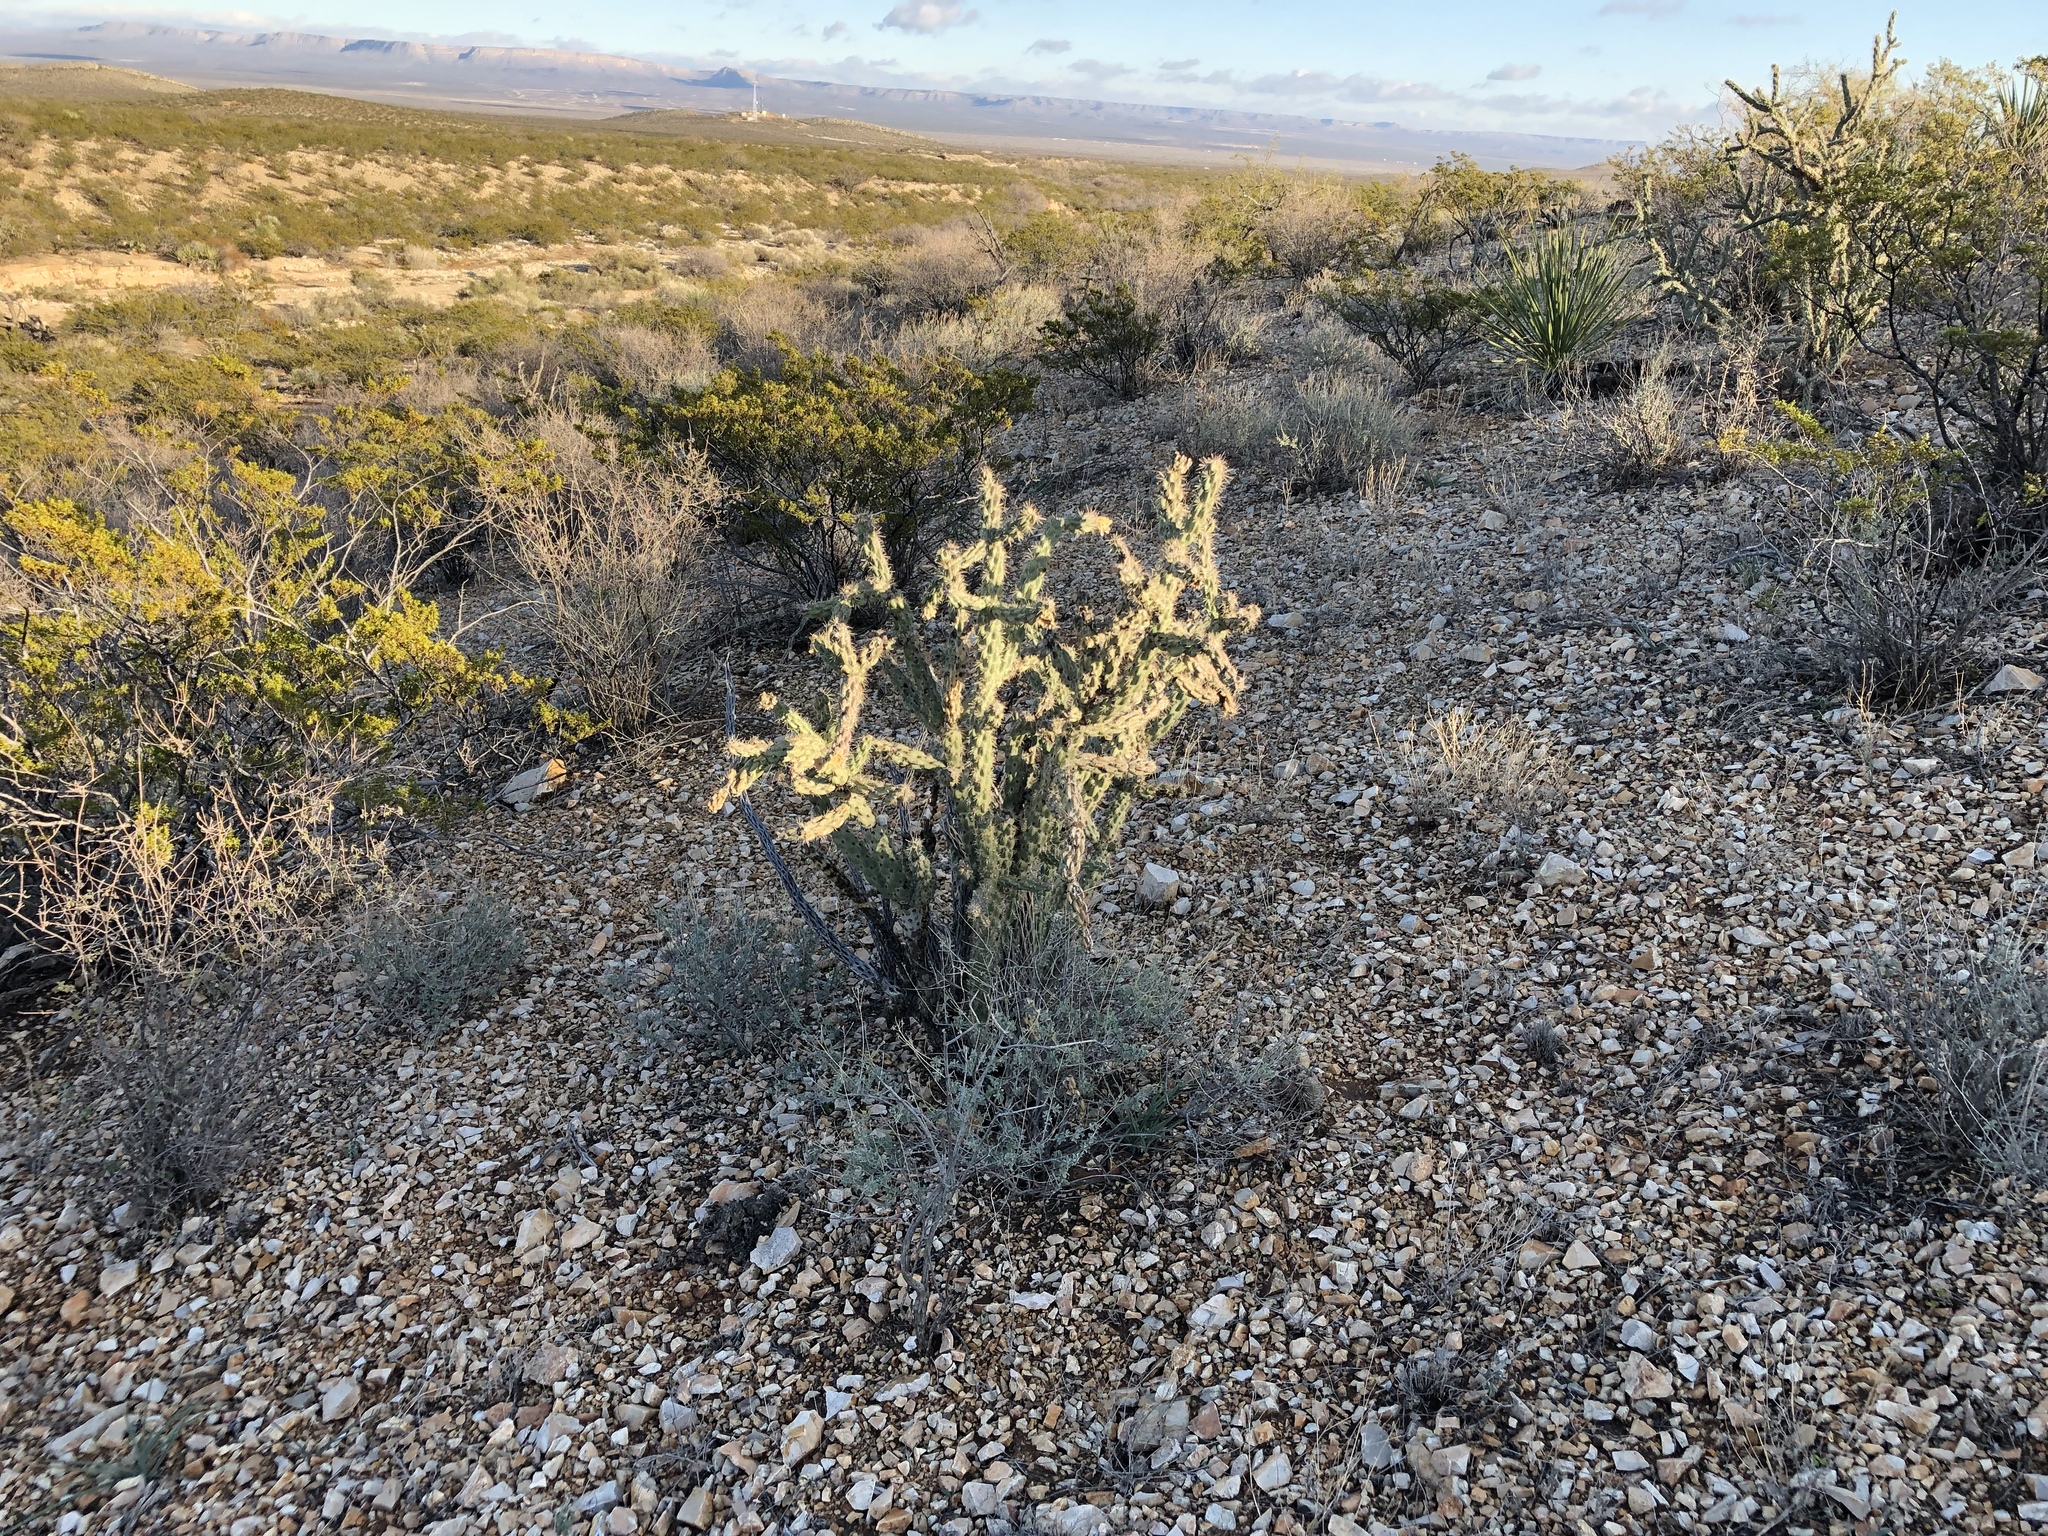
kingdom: Plantae
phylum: Tracheophyta
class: Magnoliopsida
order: Caryophyllales
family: Cactaceae
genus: Cylindropuntia
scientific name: Cylindropuntia imbricata
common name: Candelabrum cactus
